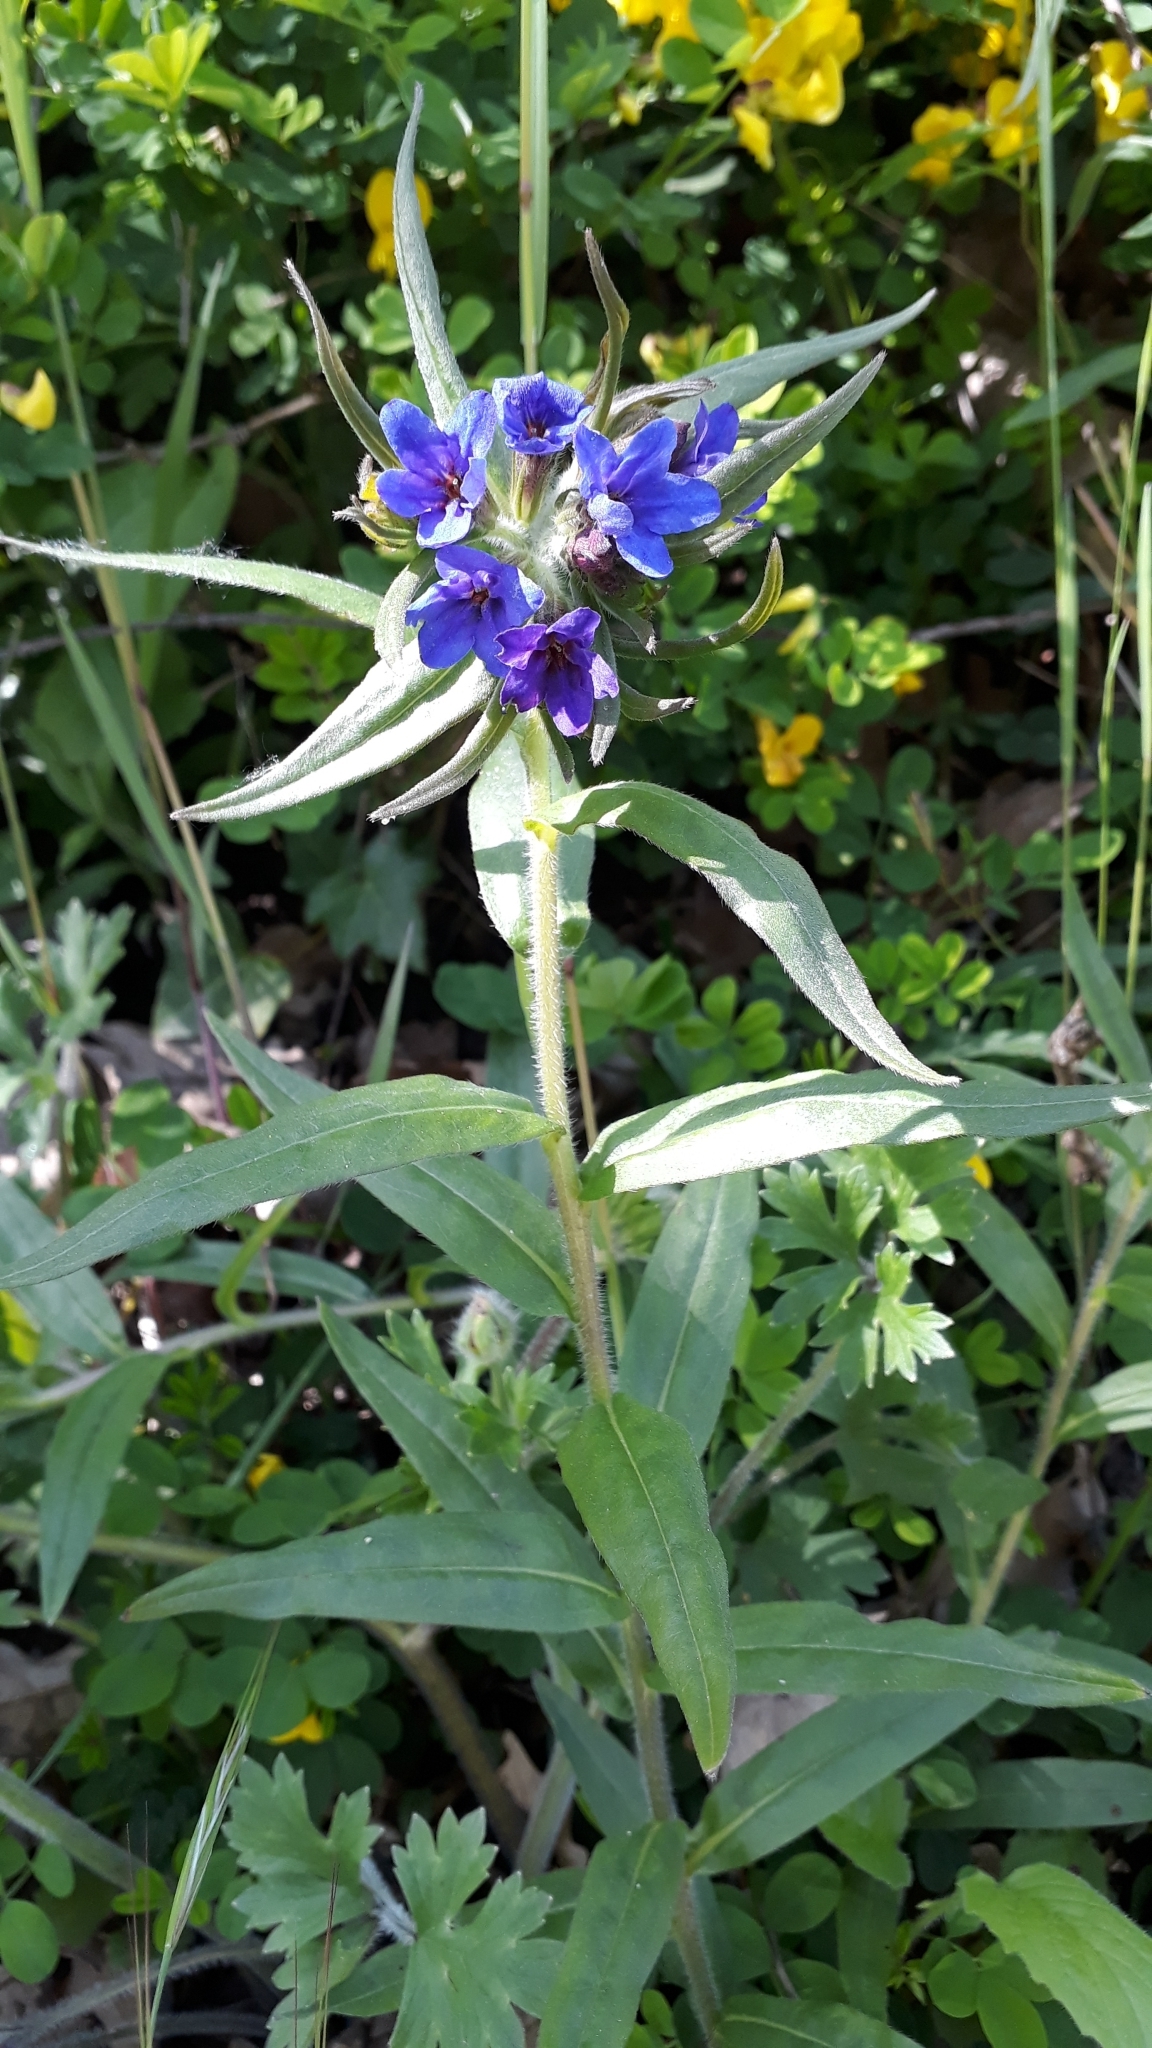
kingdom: Plantae
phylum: Tracheophyta
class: Magnoliopsida
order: Boraginales
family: Boraginaceae
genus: Aegonychon
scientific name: Aegonychon purpurocaeruleum
